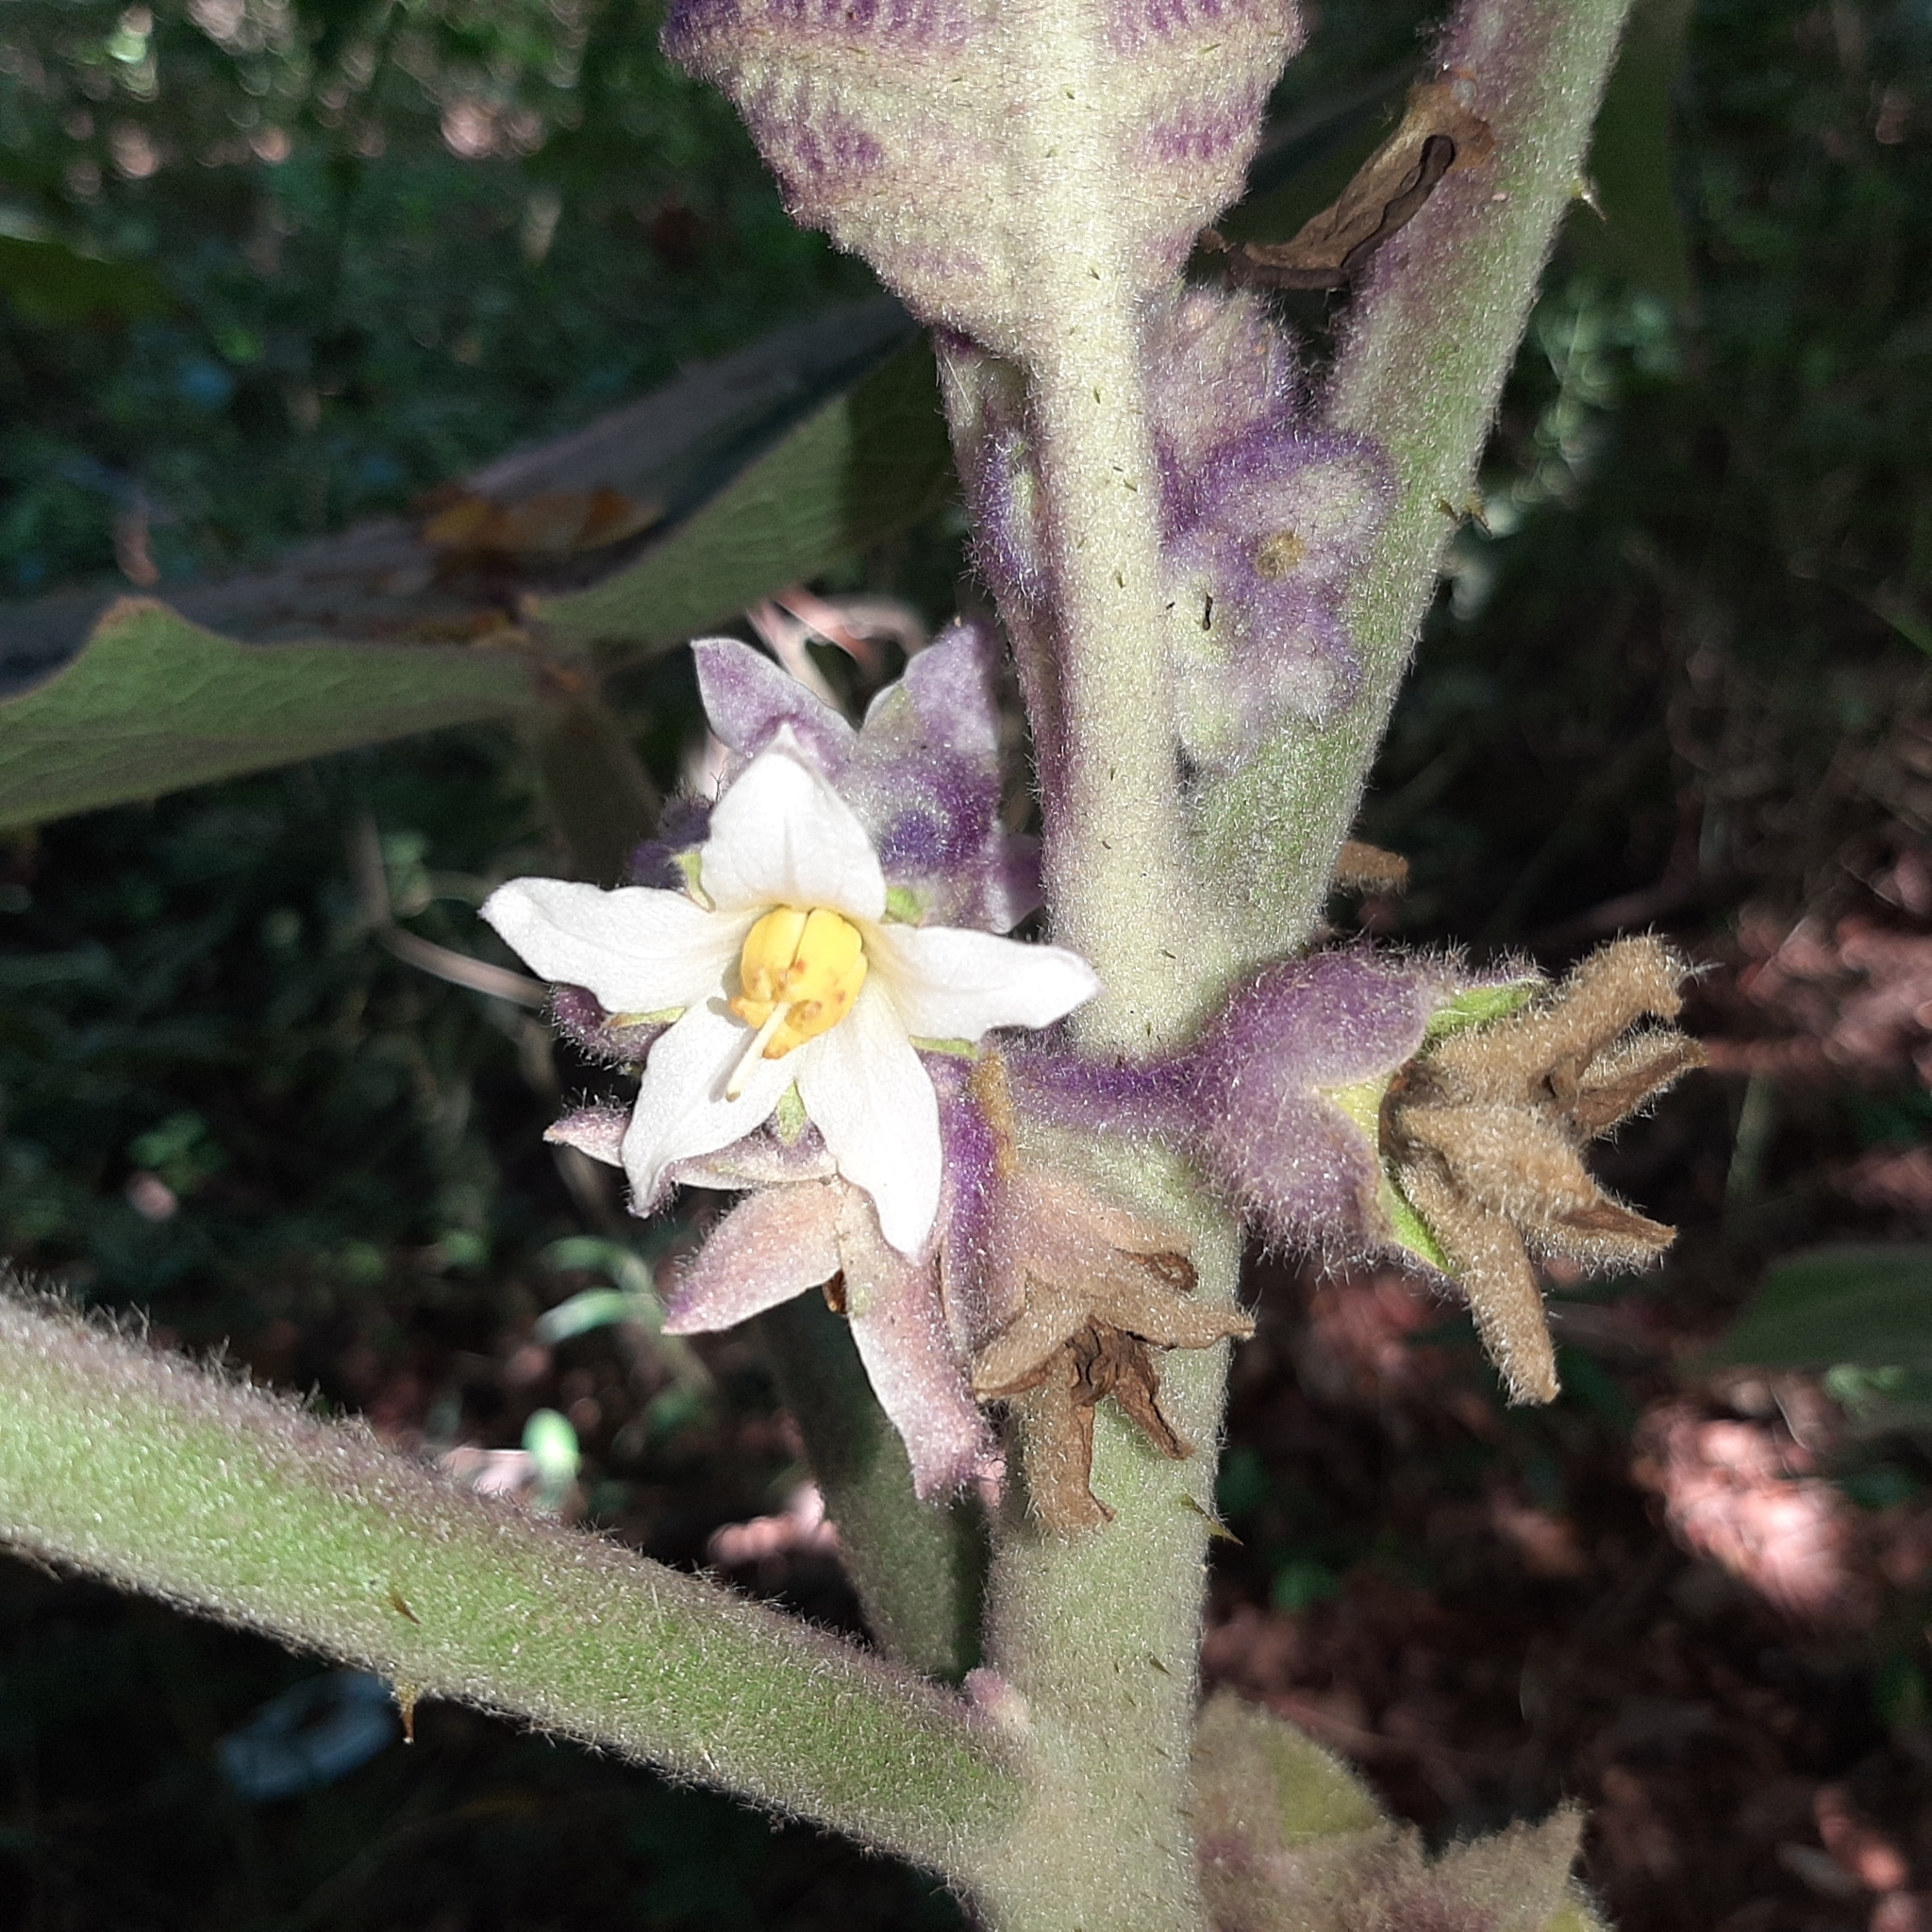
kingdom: Plantae
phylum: Tracheophyta
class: Magnoliopsida
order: Solanales
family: Solanaceae
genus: Solanum
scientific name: Solanum quitoense
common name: Quito-orange
